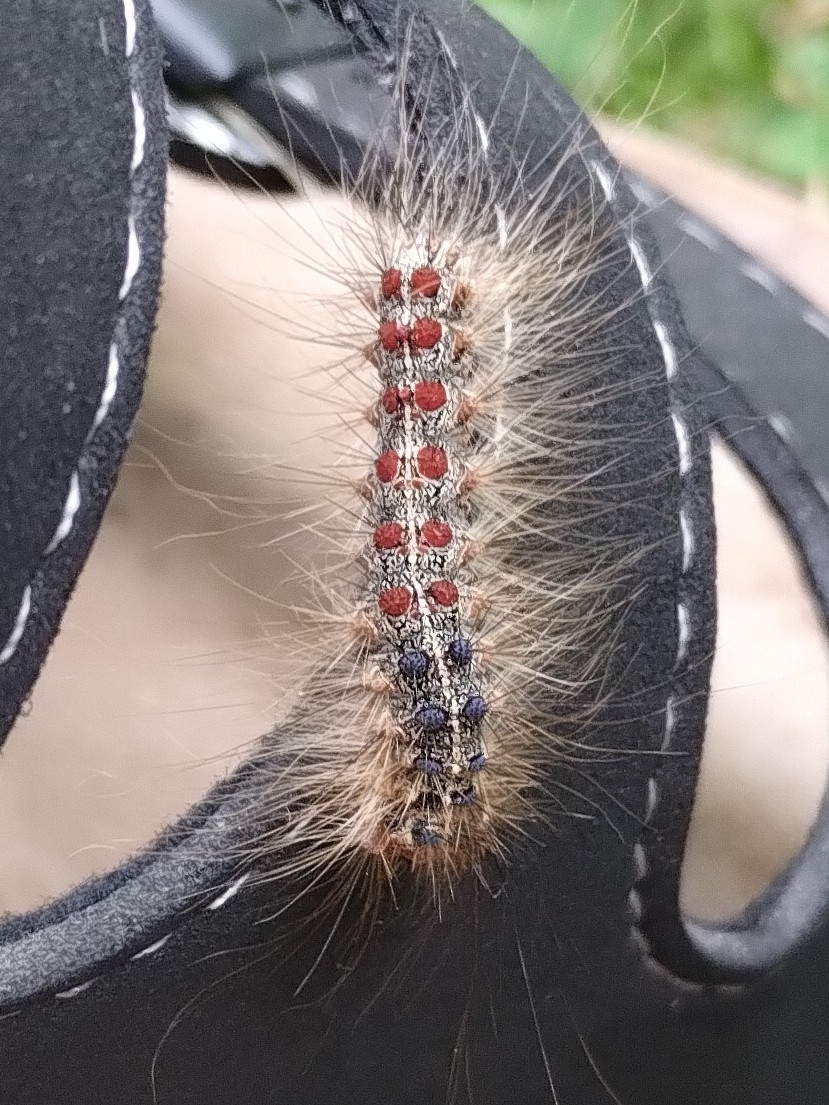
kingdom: Animalia
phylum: Arthropoda
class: Insecta
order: Lepidoptera
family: Erebidae
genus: Lymantria
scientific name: Lymantria dispar
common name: Gypsy moth
